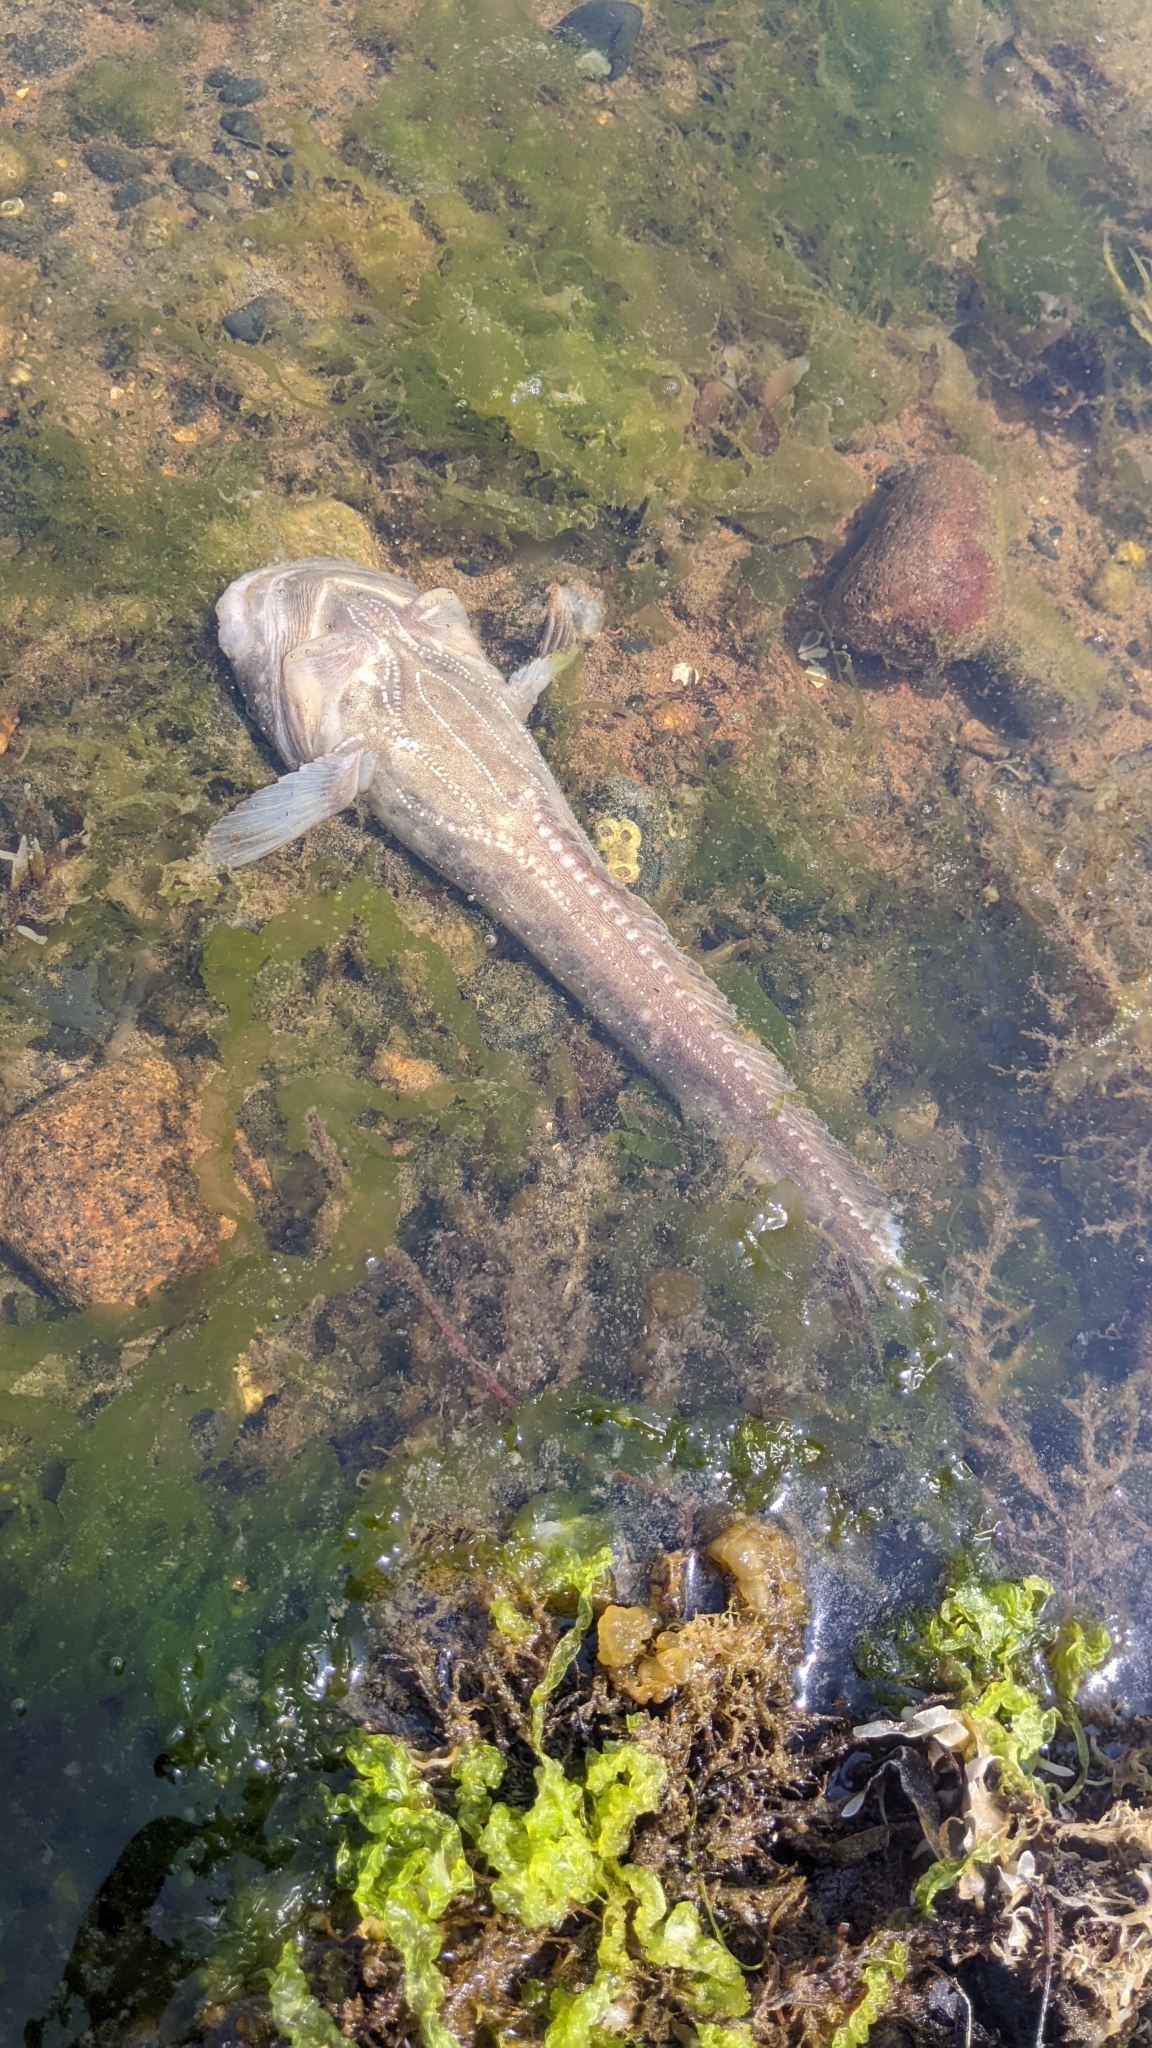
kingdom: Animalia
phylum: Chordata
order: Batrachoidiformes
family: Batrachoididae
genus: Porichthys
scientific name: Porichthys notatus
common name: Plainfin midshipman
